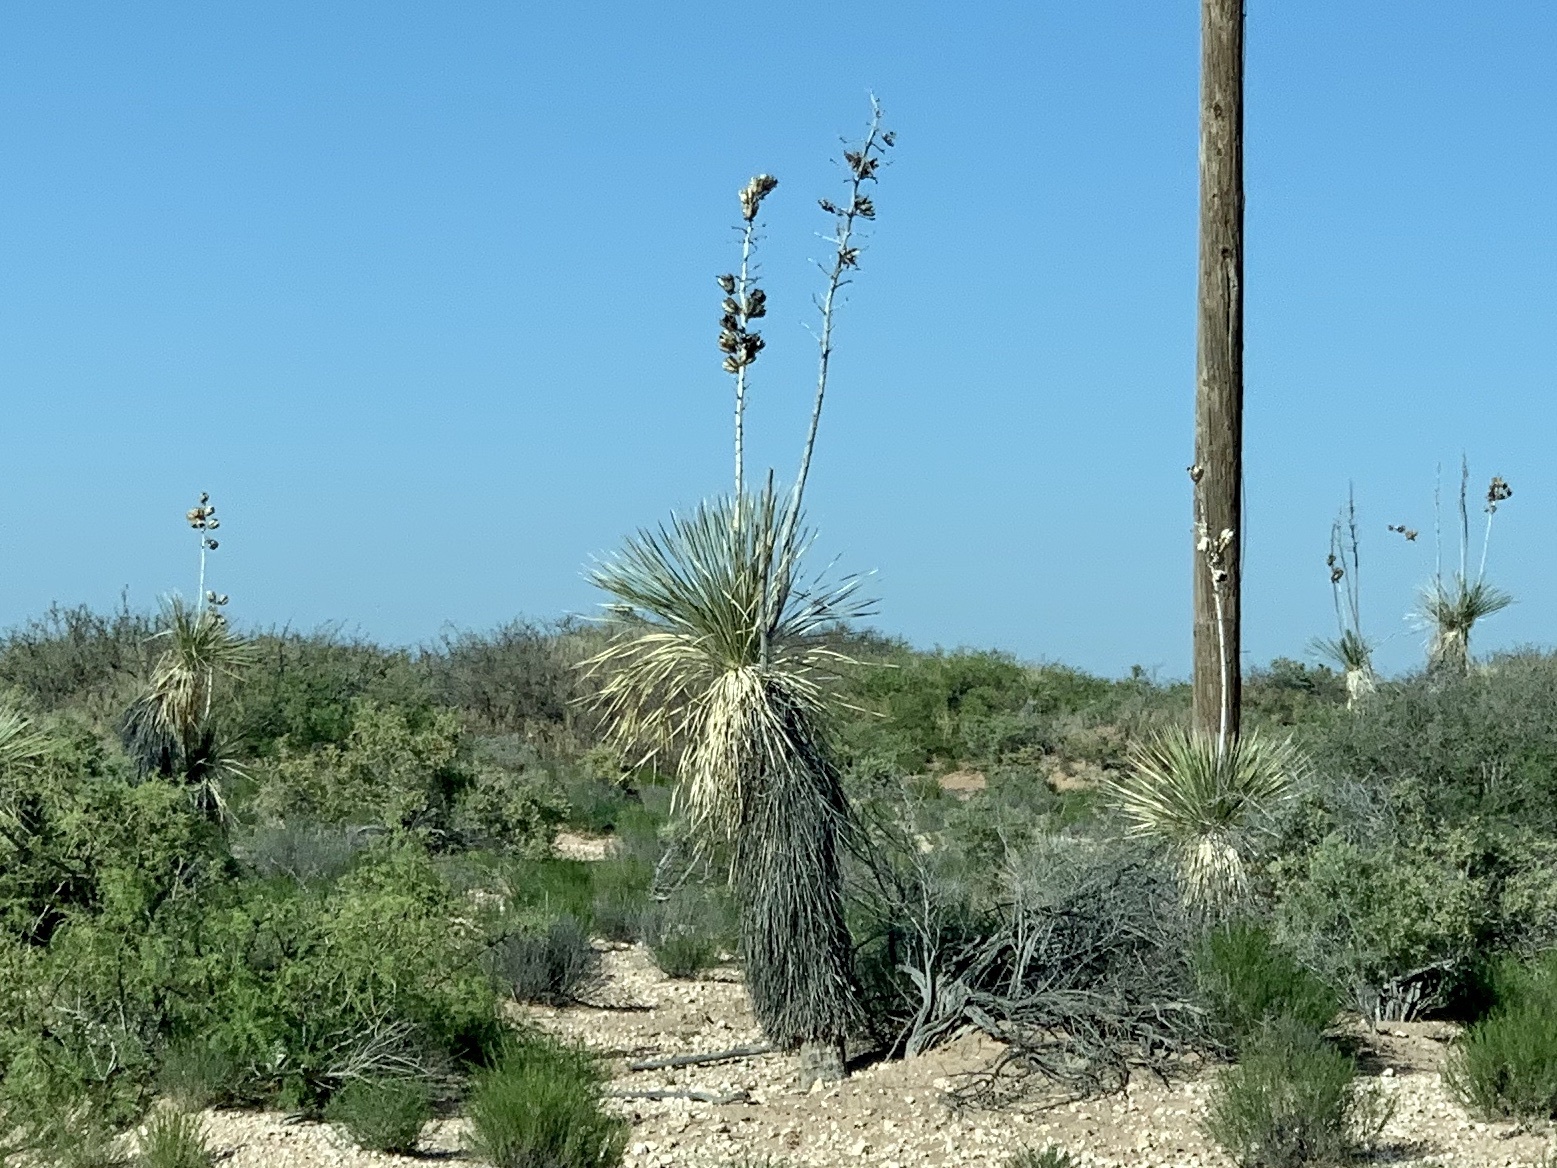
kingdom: Plantae
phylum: Tracheophyta
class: Liliopsida
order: Asparagales
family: Asparagaceae
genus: Yucca
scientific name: Yucca elata
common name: Palmella
